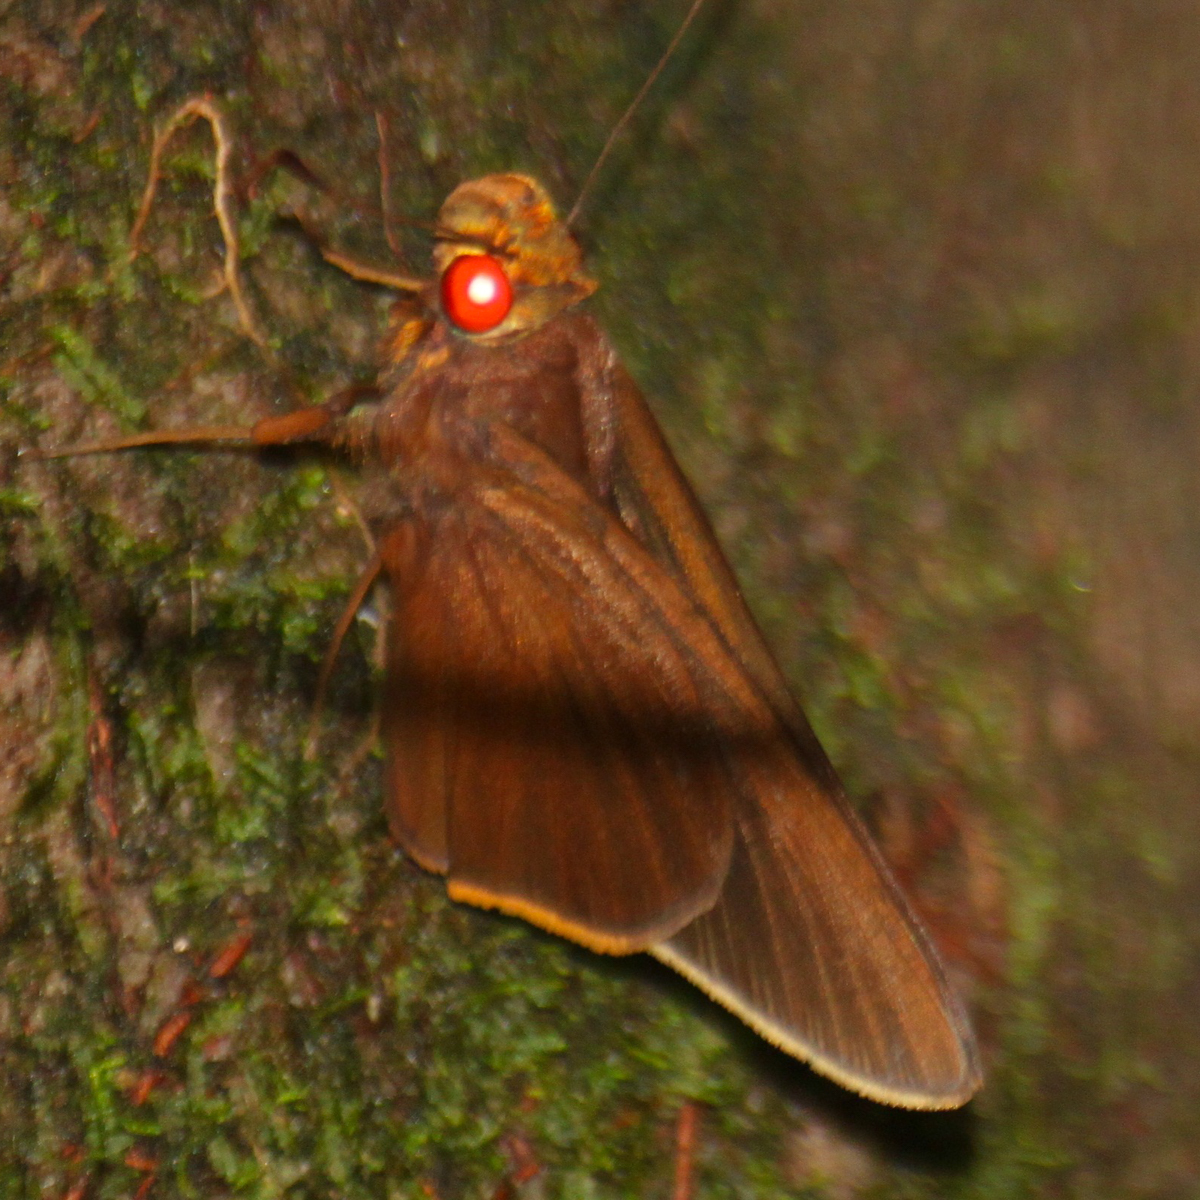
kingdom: Animalia
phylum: Arthropoda
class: Insecta
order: Lepidoptera
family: Hesperiidae
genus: Matapa
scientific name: Matapa druna
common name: Grey-brand redeye
